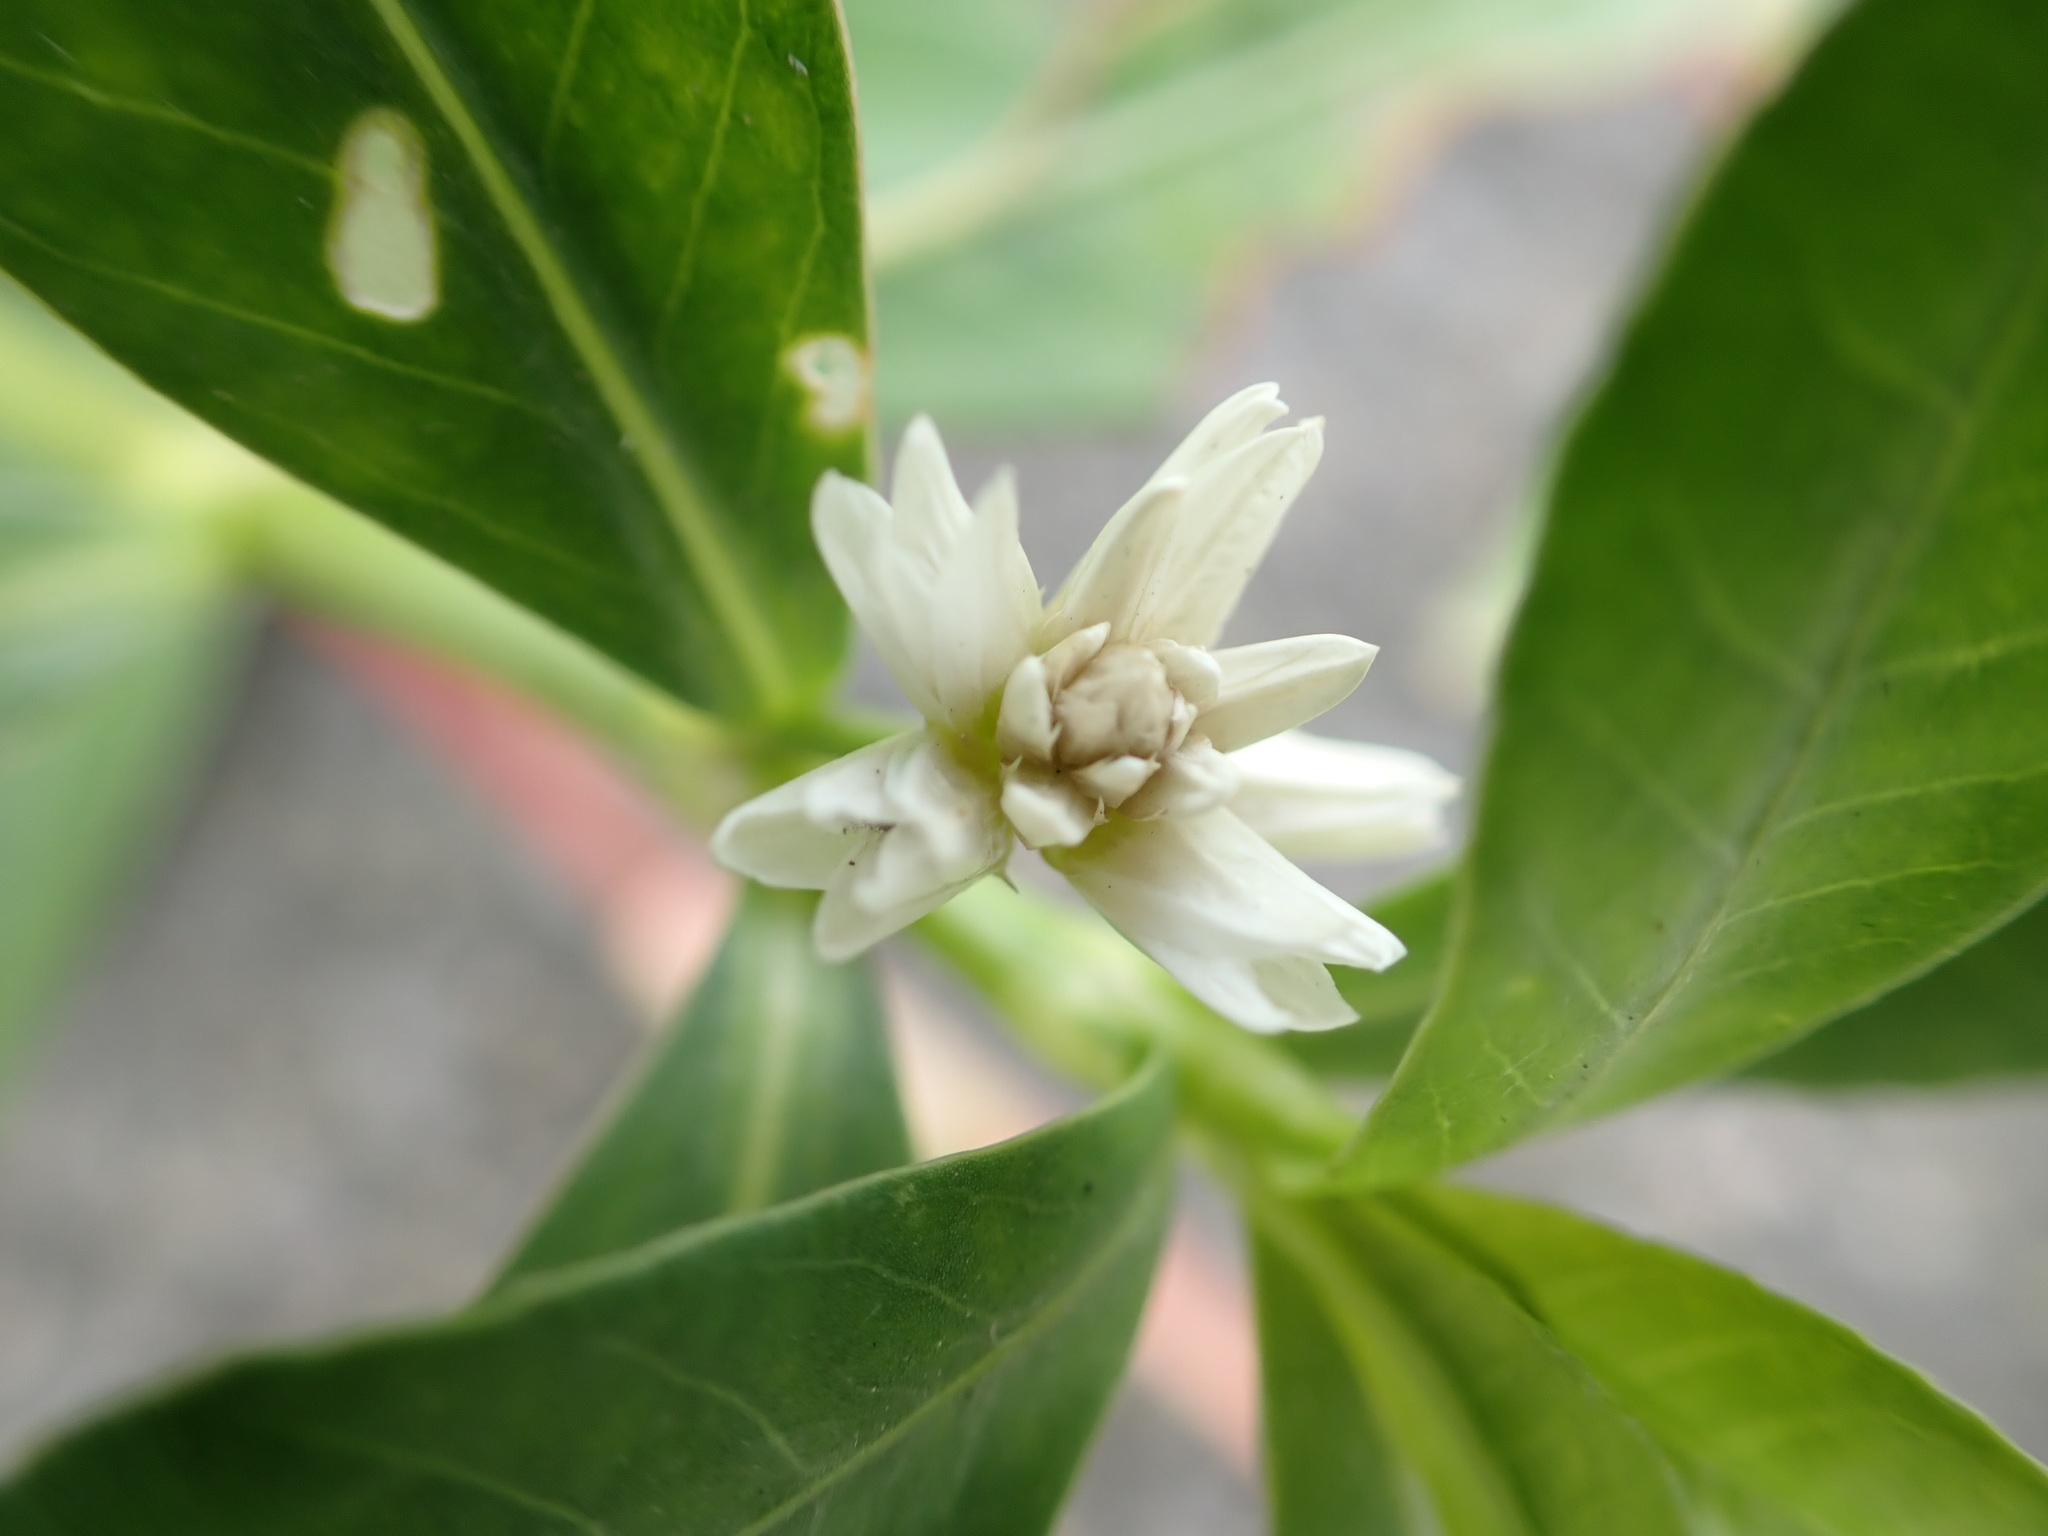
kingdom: Plantae
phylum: Tracheophyta
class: Magnoliopsida
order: Caryophyllales
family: Amaranthaceae
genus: Alternanthera
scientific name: Alternanthera philoxeroides
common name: Alligatorweed
